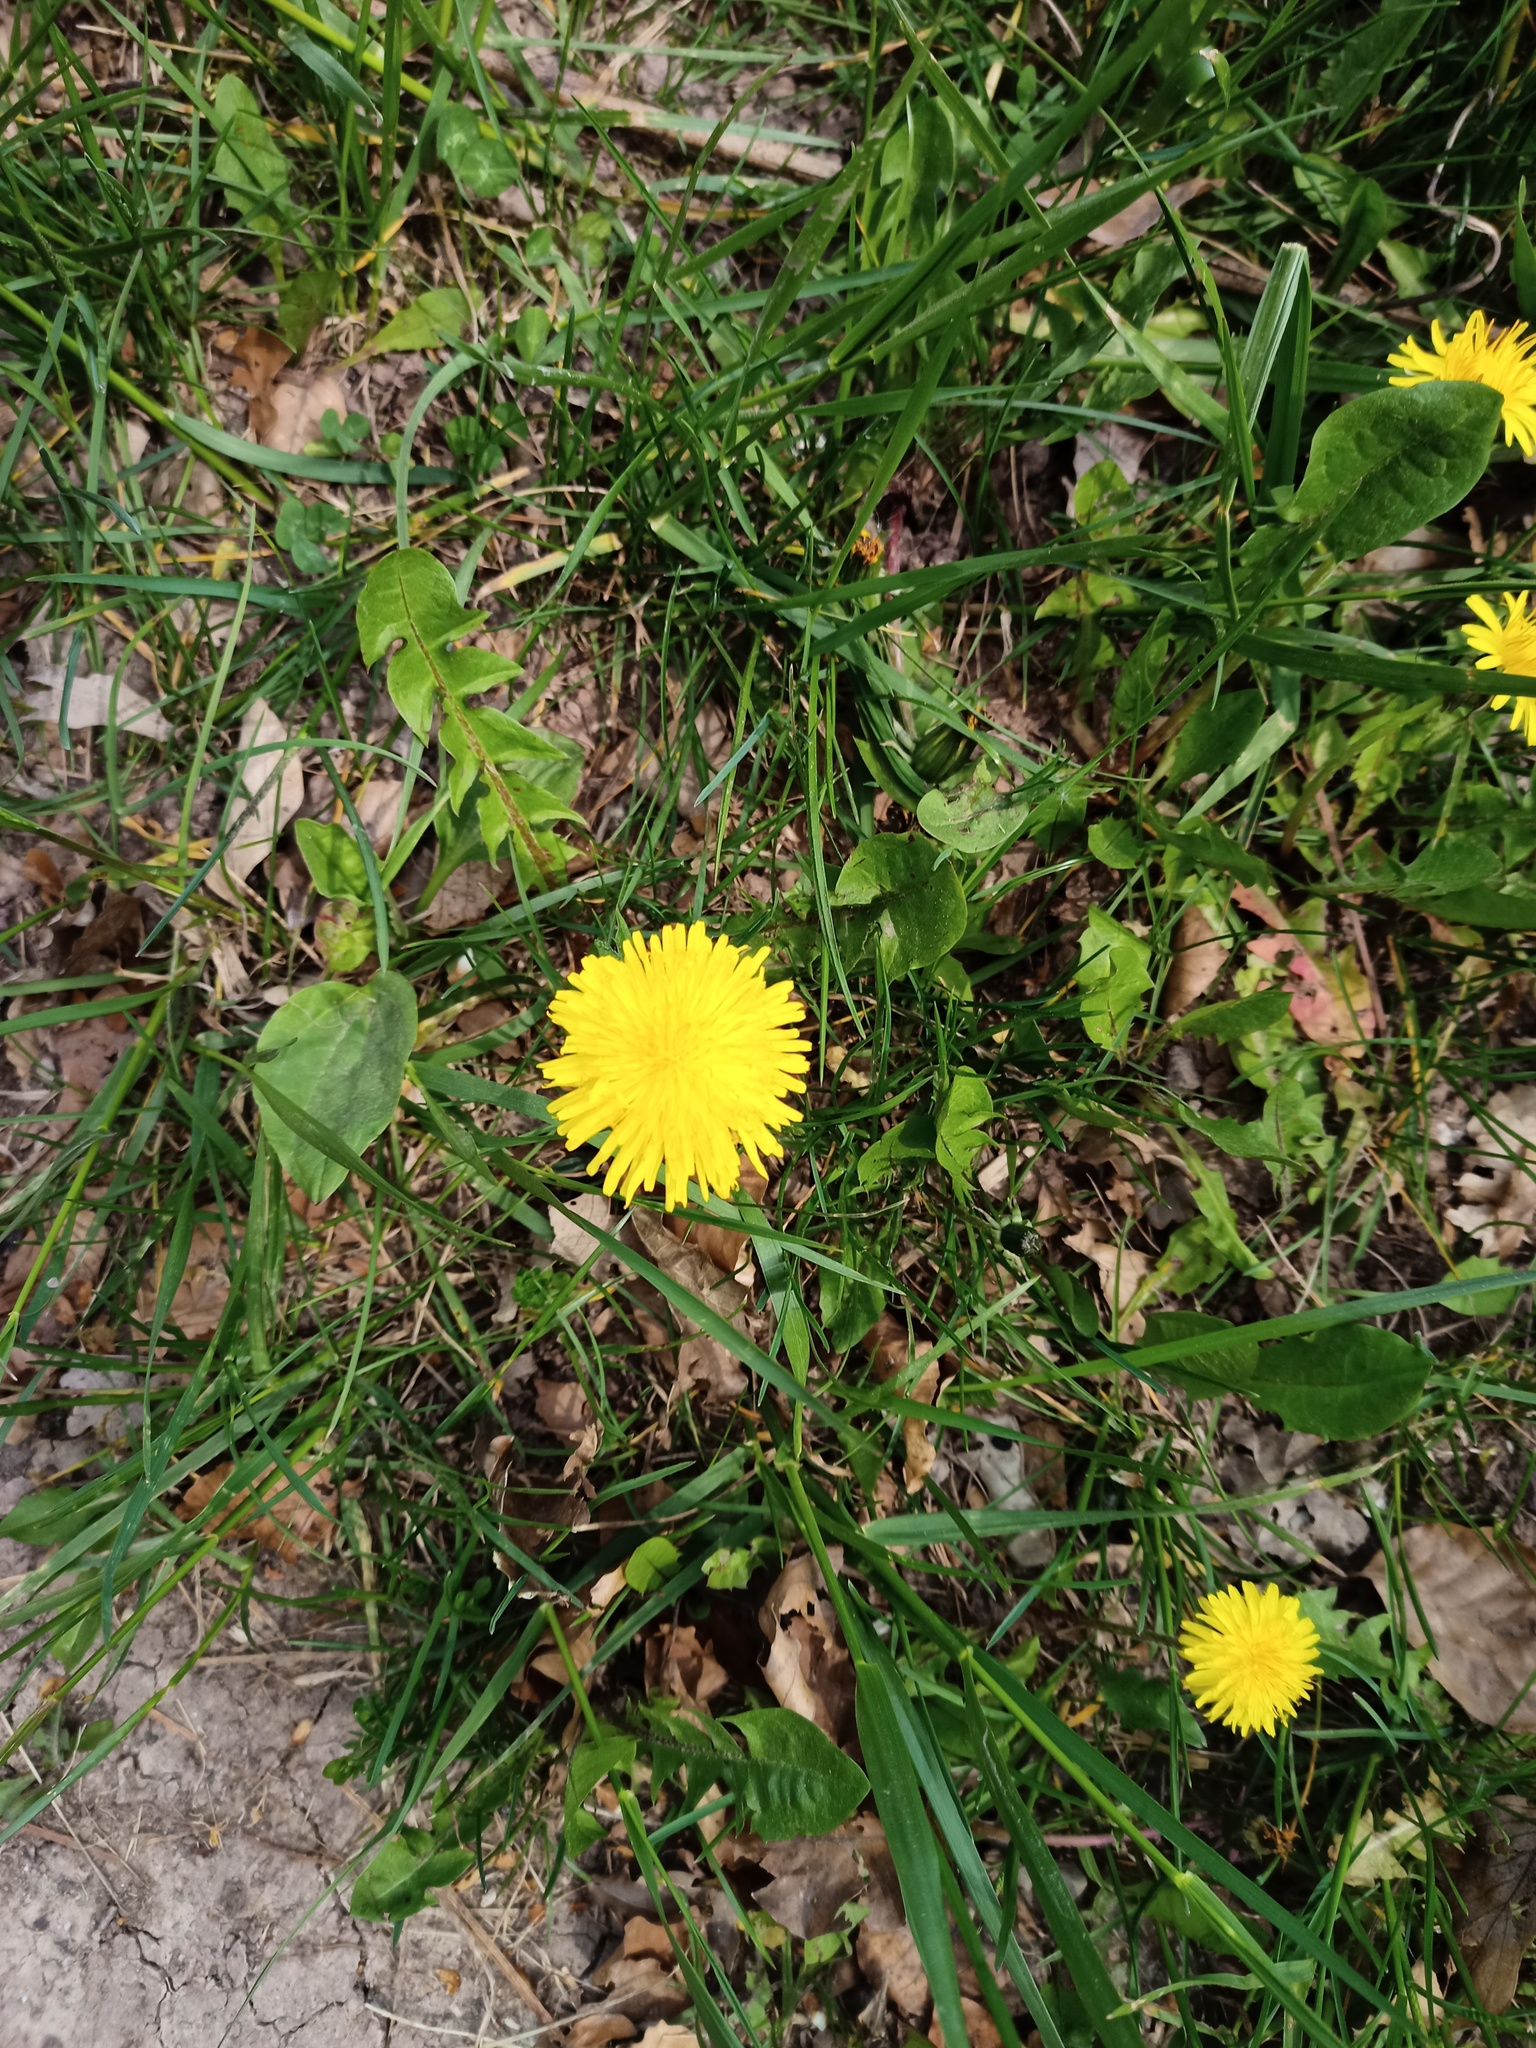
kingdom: Plantae
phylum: Tracheophyta
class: Magnoliopsida
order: Asterales
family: Asteraceae
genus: Taraxacum
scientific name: Taraxacum officinale
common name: Common dandelion
